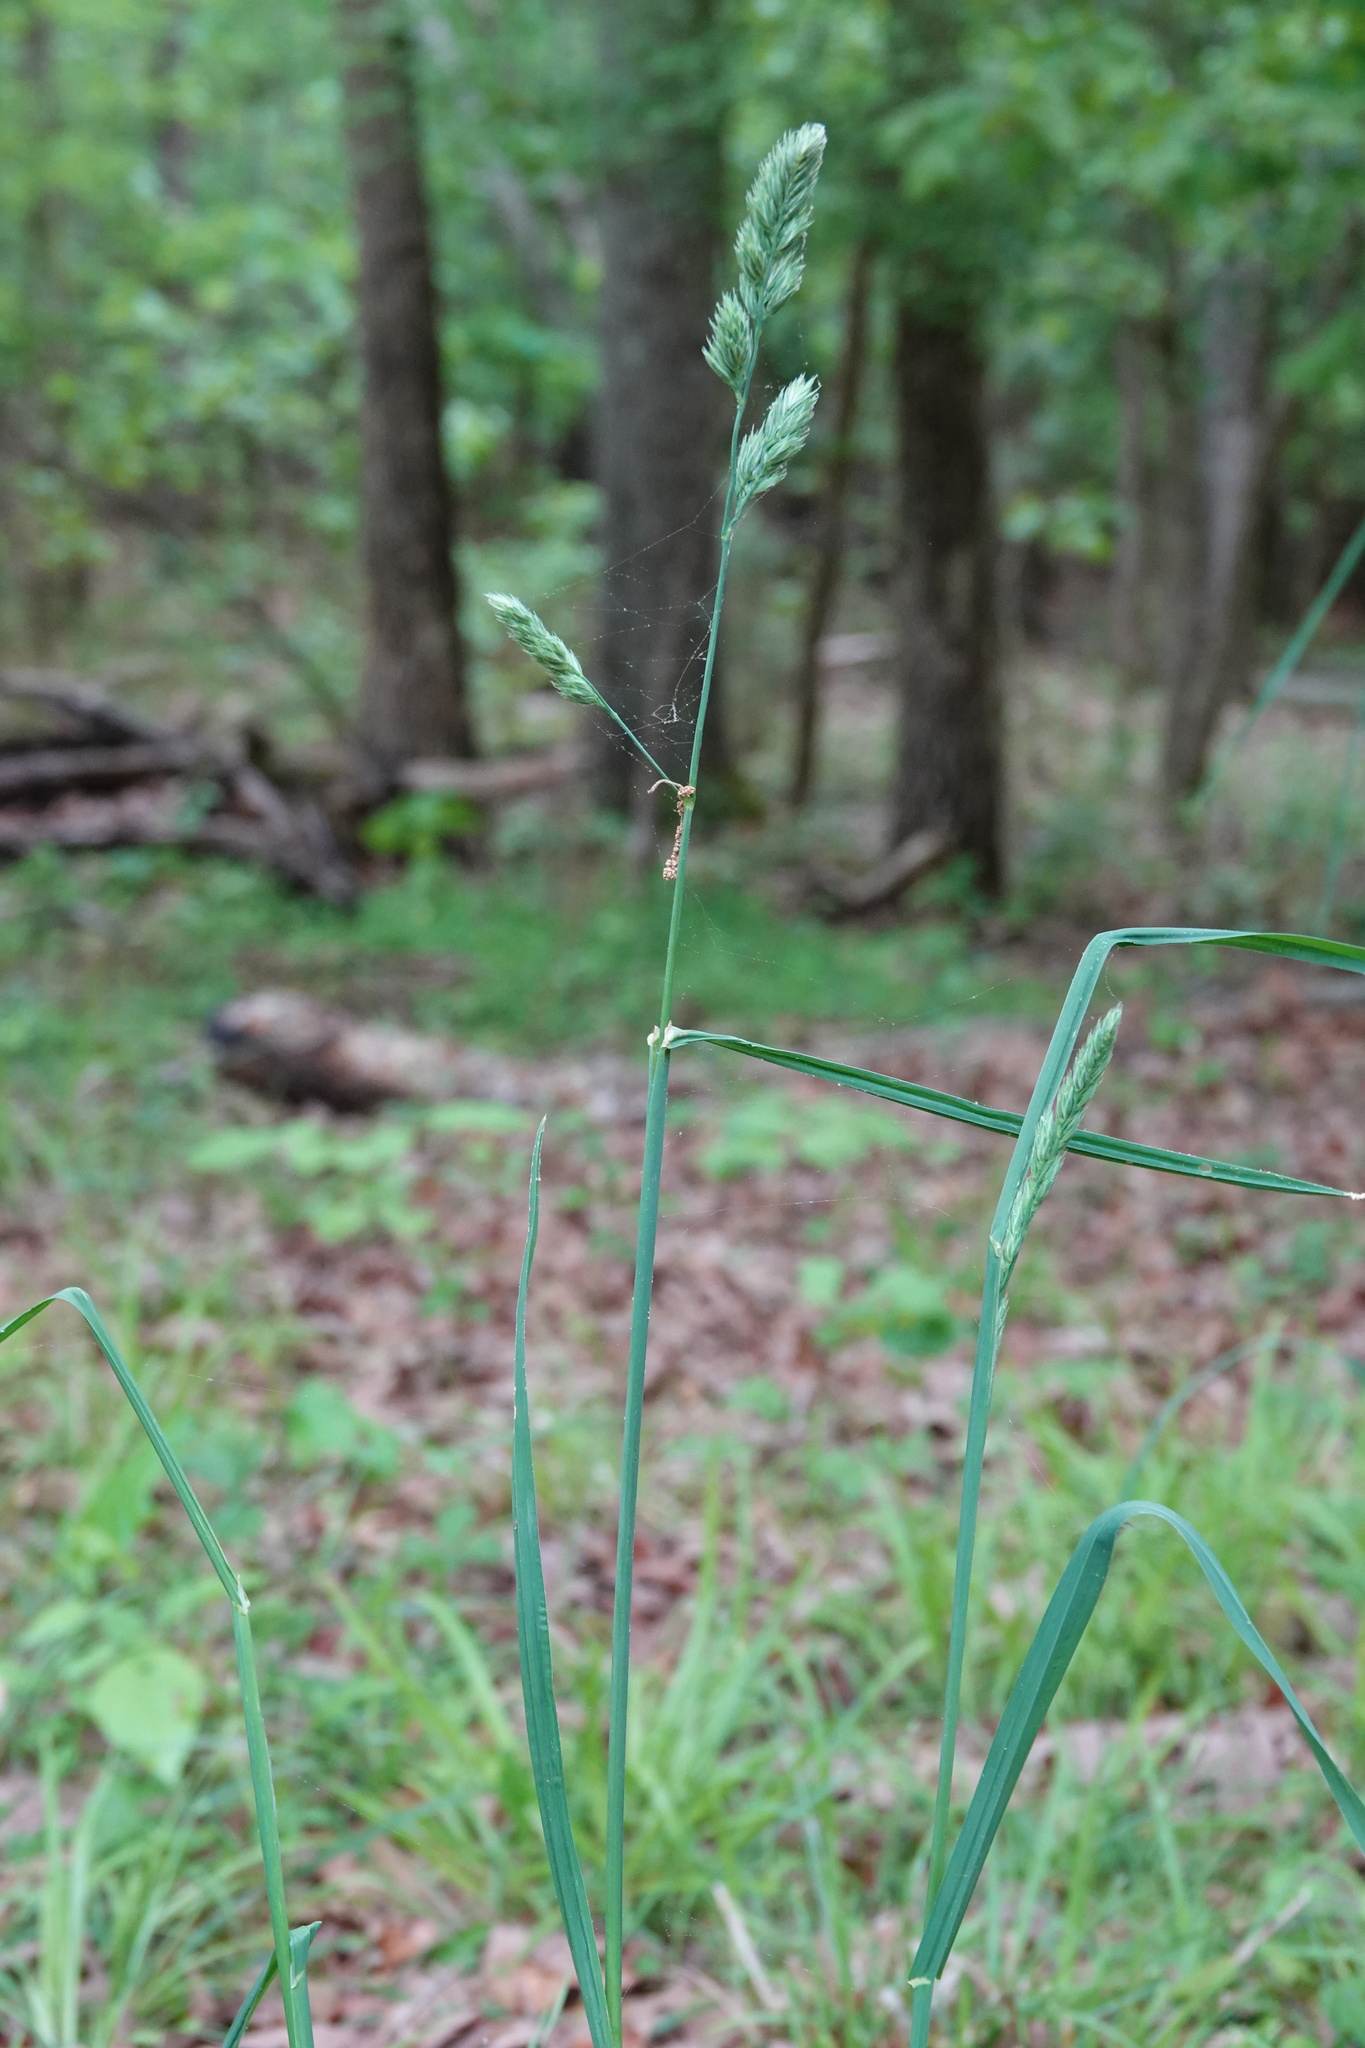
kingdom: Plantae
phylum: Tracheophyta
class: Liliopsida
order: Poales
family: Poaceae
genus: Dactylis
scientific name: Dactylis glomerata
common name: Orchardgrass
